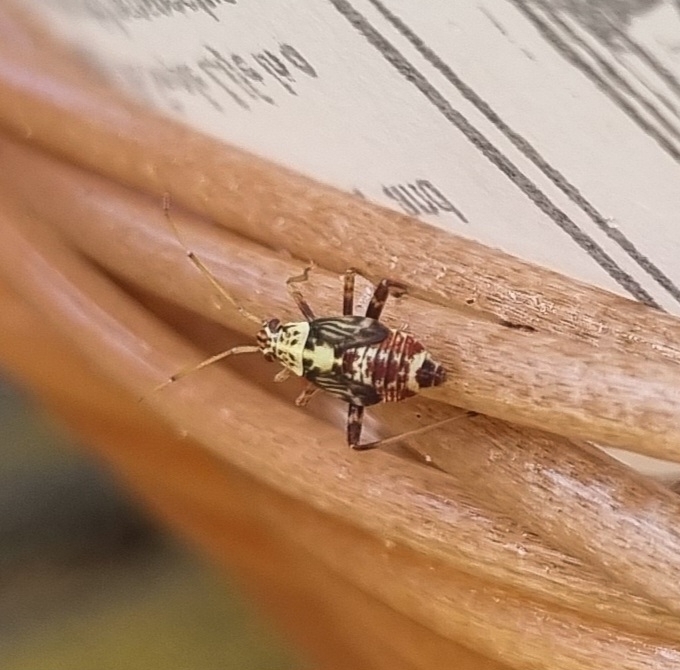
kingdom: Animalia
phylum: Arthropoda
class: Insecta
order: Hemiptera
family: Miridae
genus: Rhabdomiris
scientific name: Rhabdomiris striatellus
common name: Plant bug
